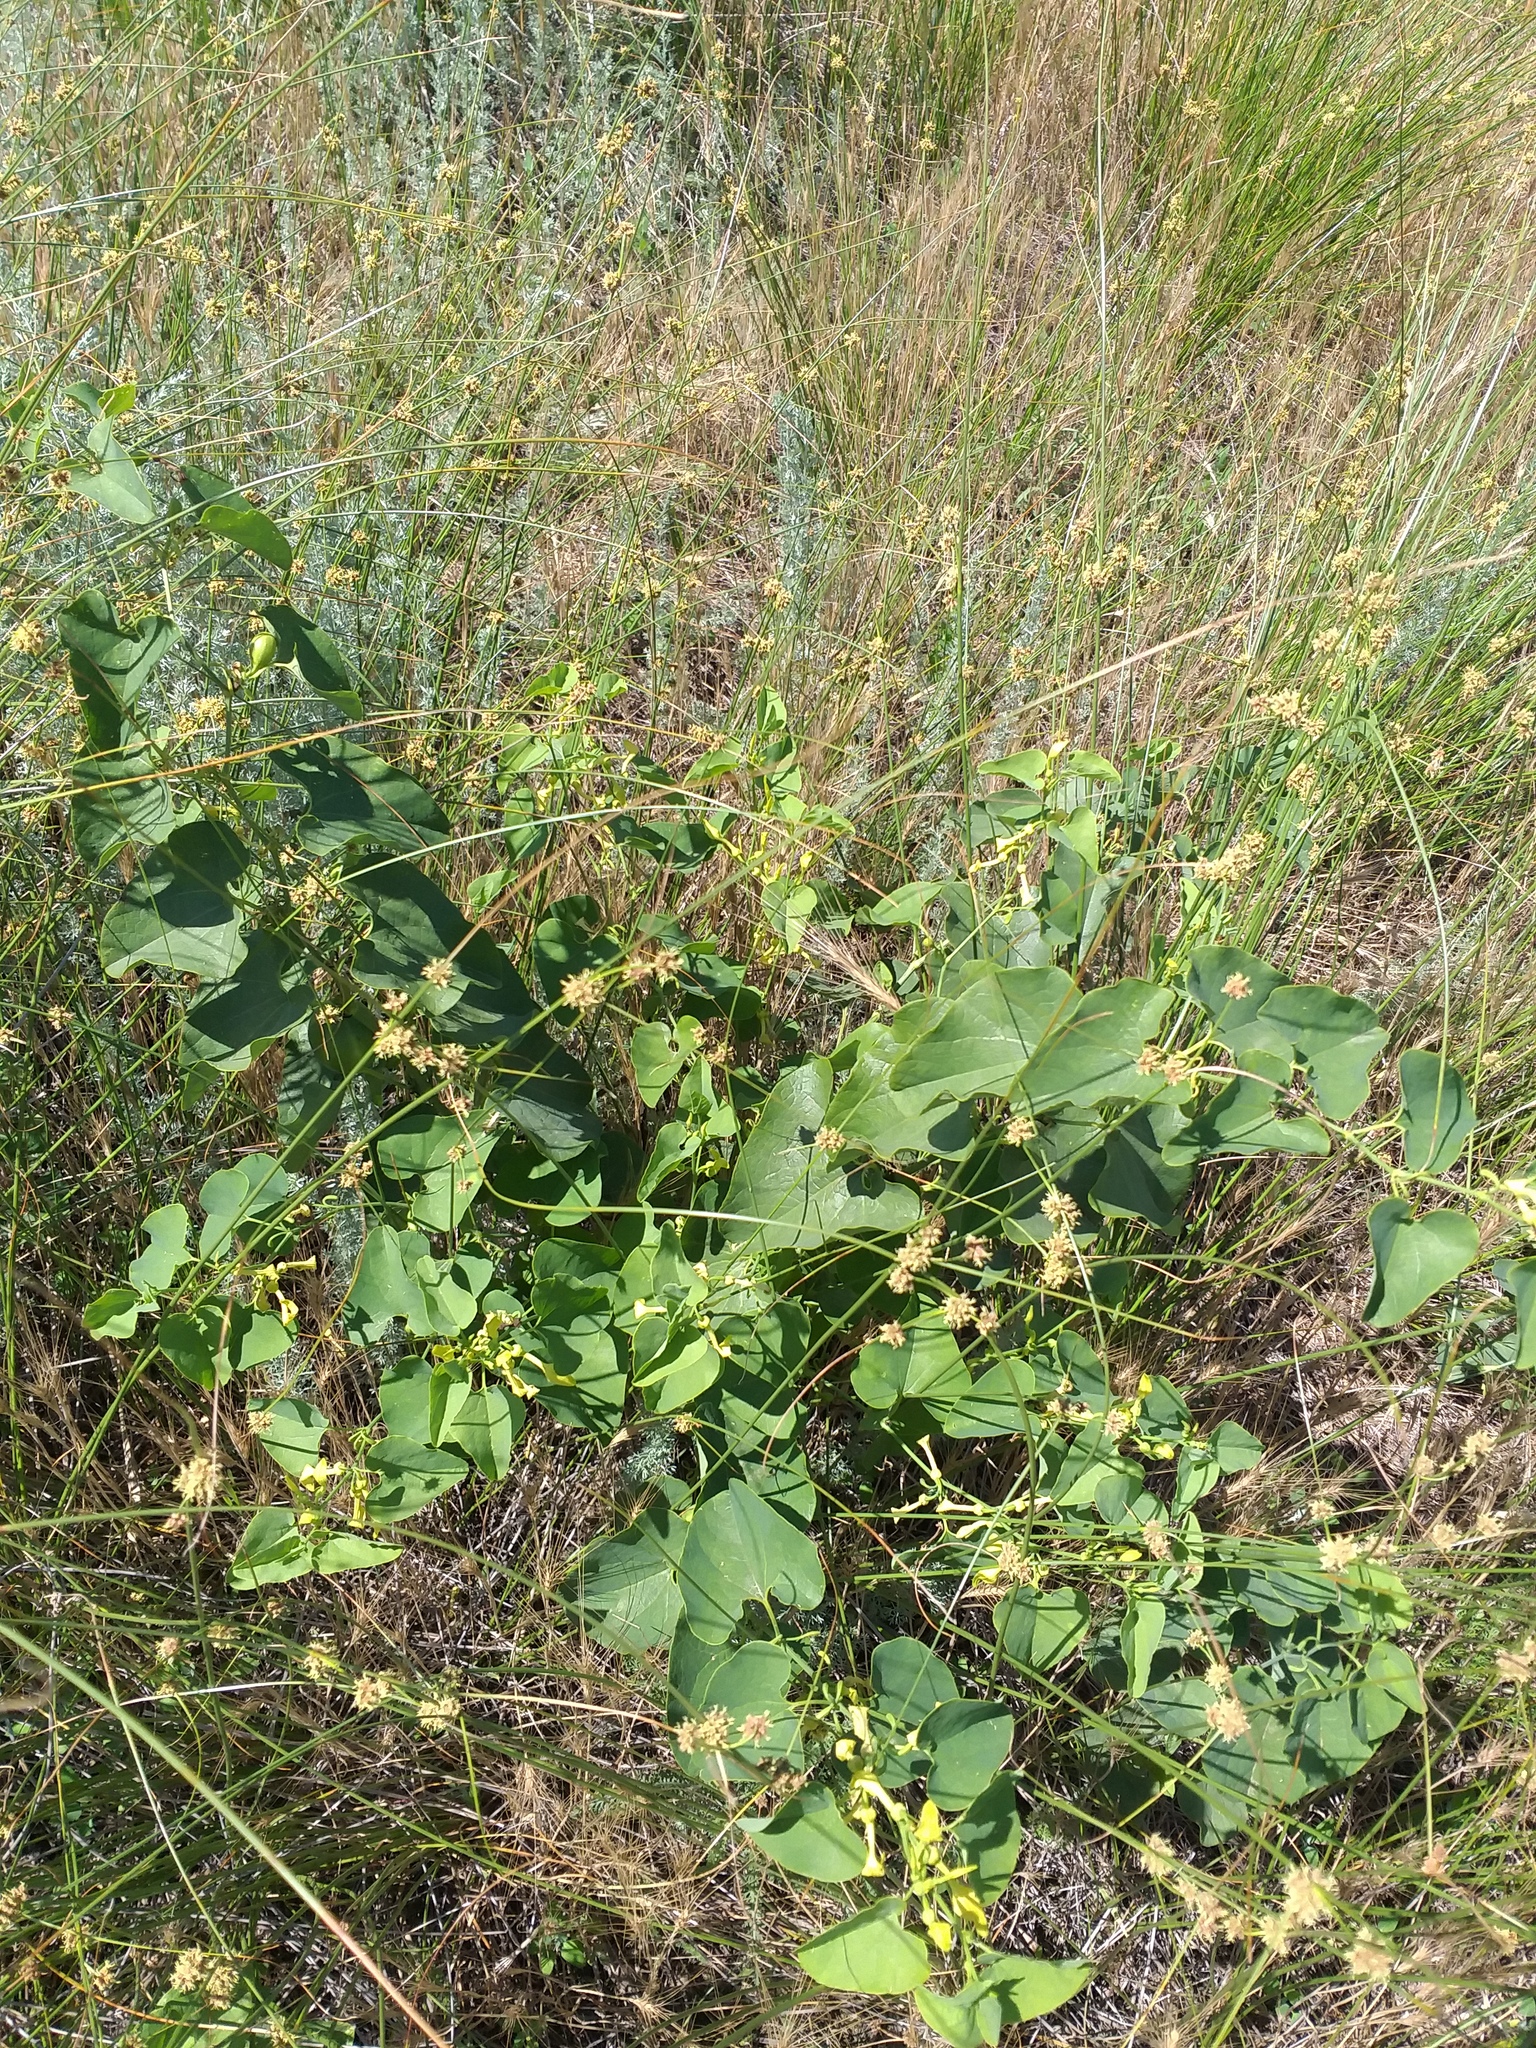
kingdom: Plantae
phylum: Tracheophyta
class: Magnoliopsida
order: Piperales
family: Aristolochiaceae
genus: Aristolochia
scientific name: Aristolochia clematitis
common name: Birthwort
